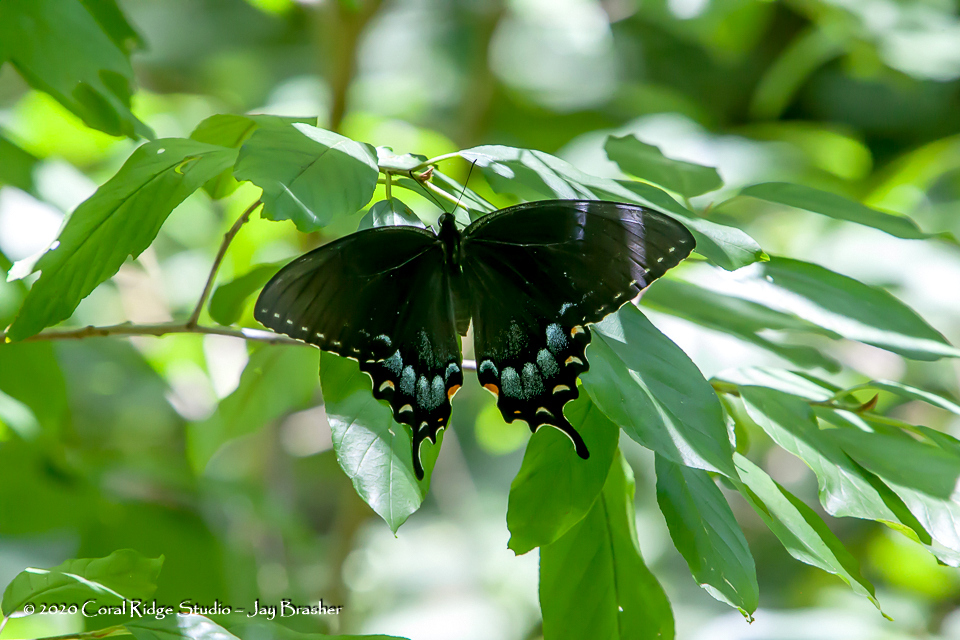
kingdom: Animalia
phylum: Arthropoda
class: Insecta
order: Lepidoptera
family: Papilionidae
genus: Papilio
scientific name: Papilio glaucus
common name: Tiger swallowtail
